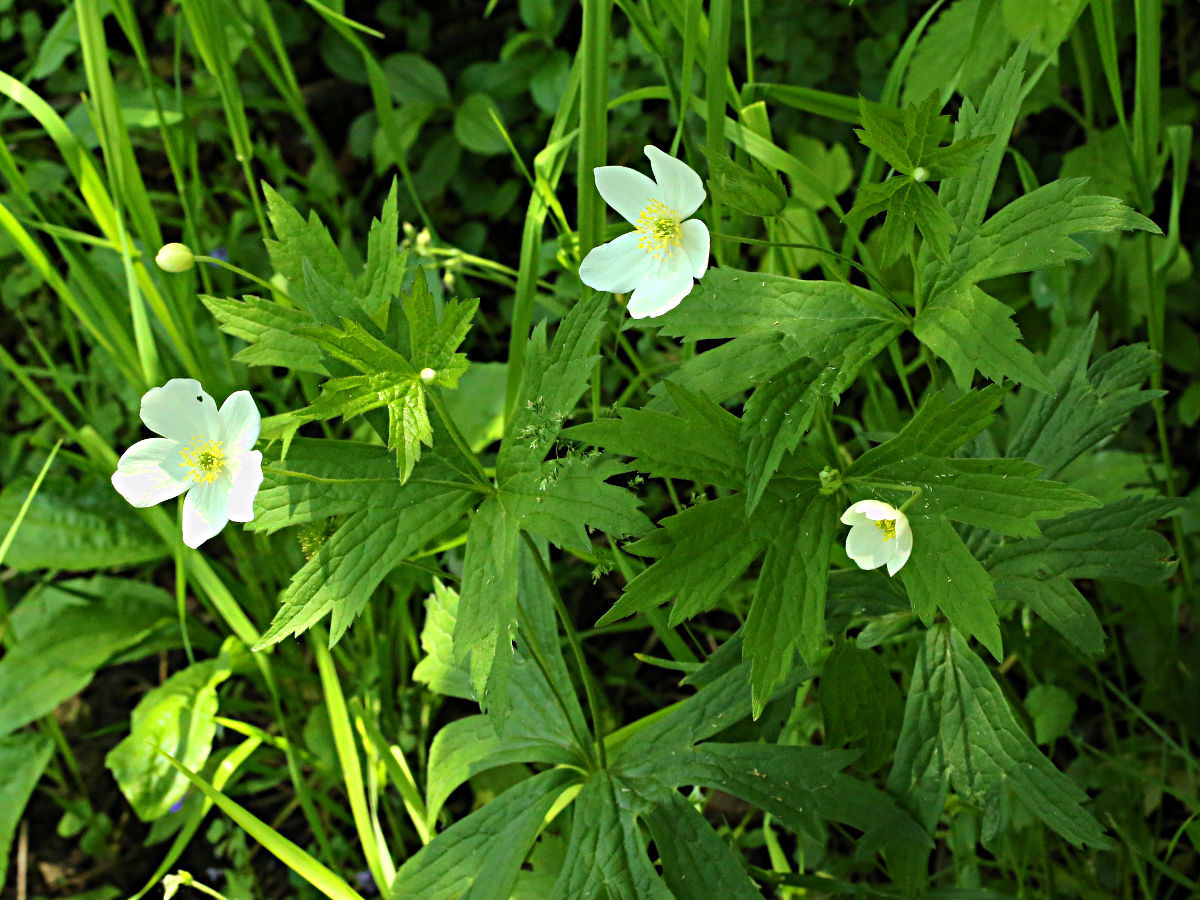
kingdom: Plantae
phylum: Tracheophyta
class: Magnoliopsida
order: Ranunculales
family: Ranunculaceae
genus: Anemonastrum
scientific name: Anemonastrum canadense
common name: Canada anemone
